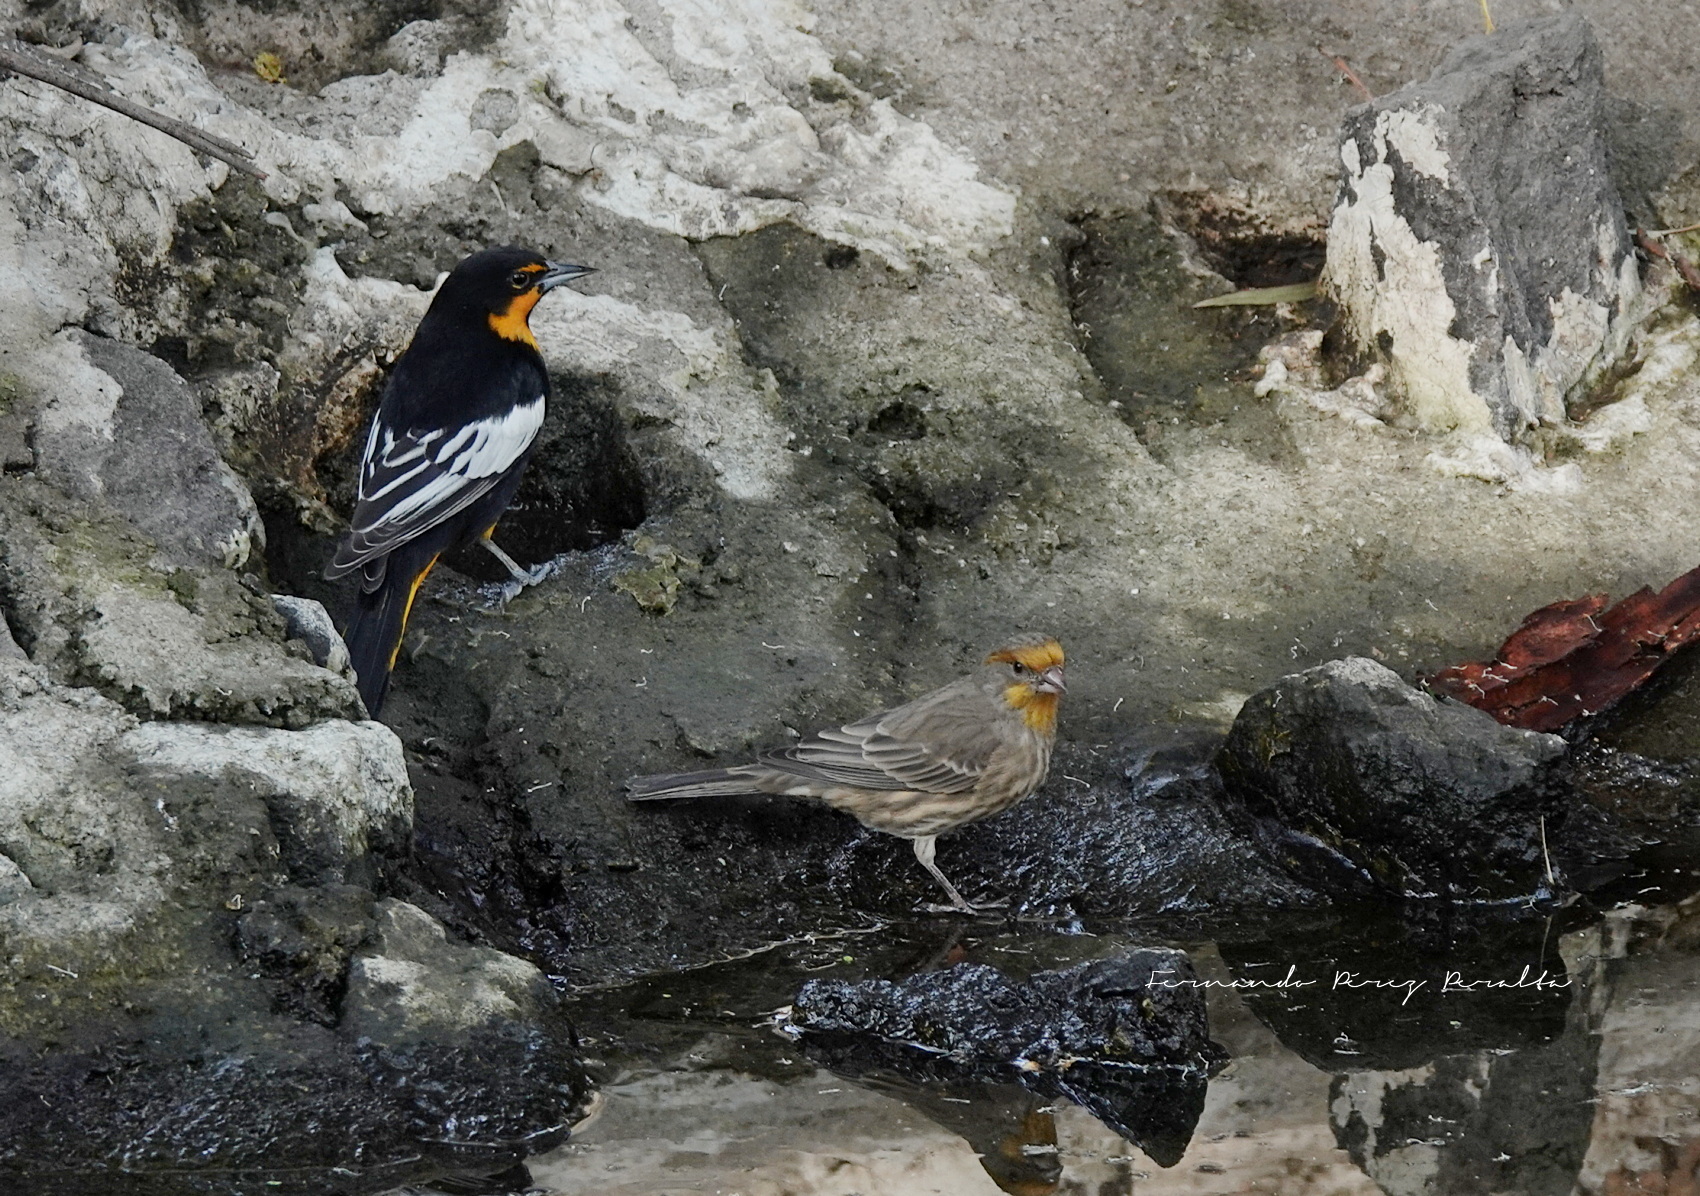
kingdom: Animalia
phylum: Chordata
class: Aves
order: Passeriformes
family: Icteridae
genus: Icterus
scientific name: Icterus abeillei
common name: Black-backed oriole
